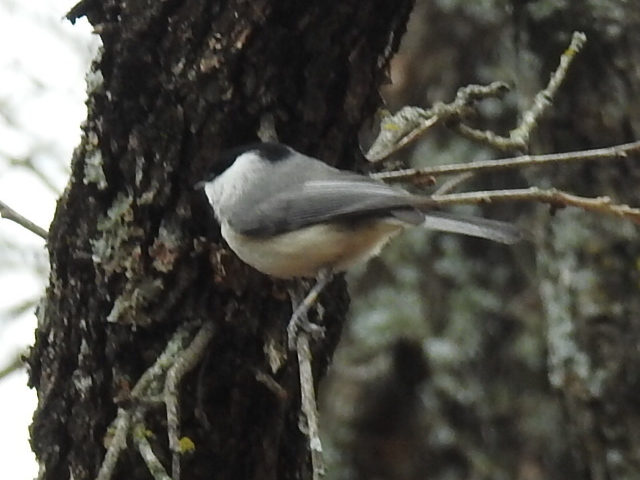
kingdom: Animalia
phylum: Chordata
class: Aves
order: Passeriformes
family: Paridae
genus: Poecile
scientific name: Poecile carolinensis
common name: Carolina chickadee
